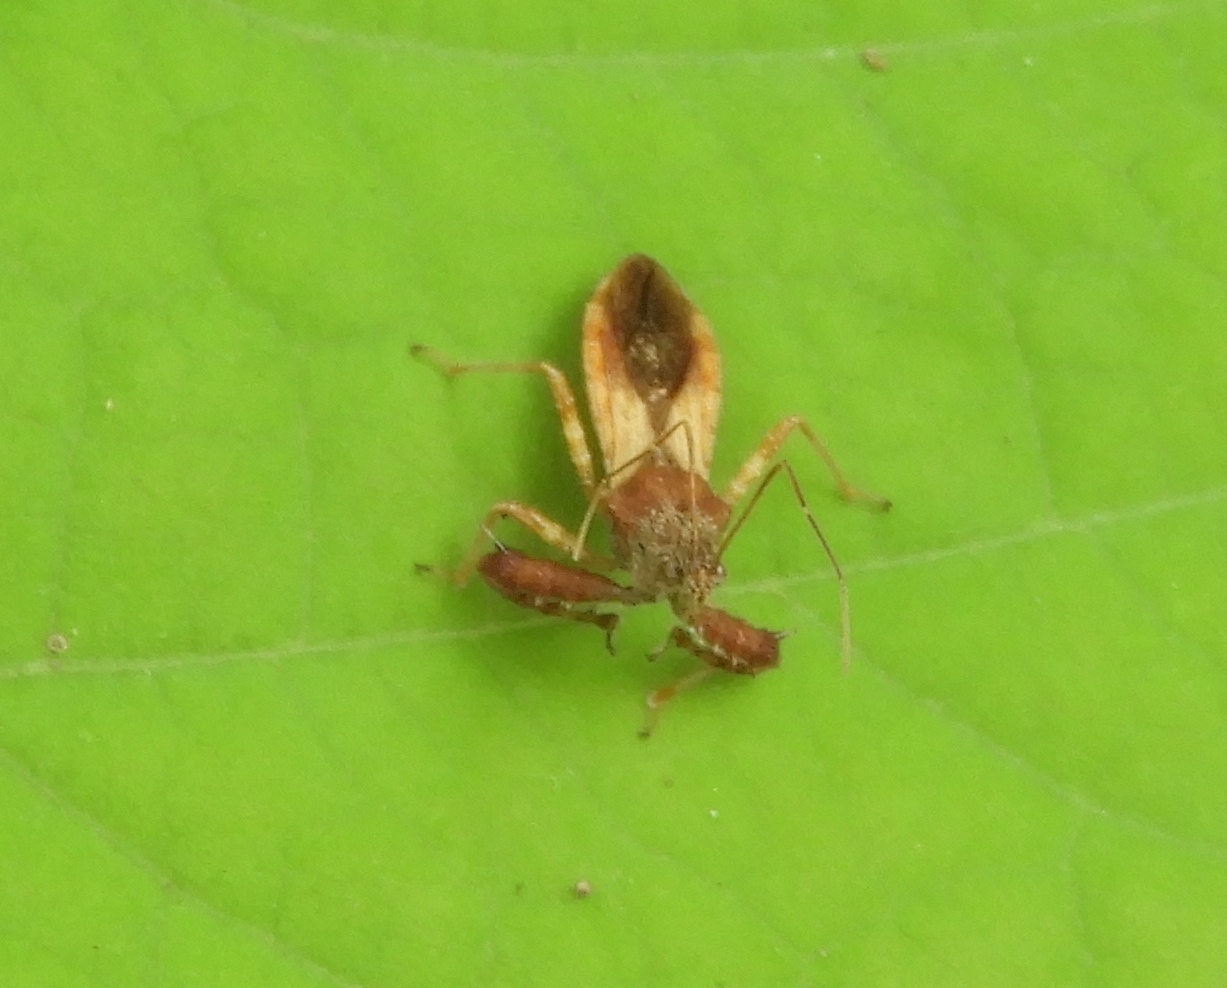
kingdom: Animalia
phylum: Arthropoda
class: Insecta
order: Hemiptera
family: Reduviidae
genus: Sinea
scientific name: Sinea
